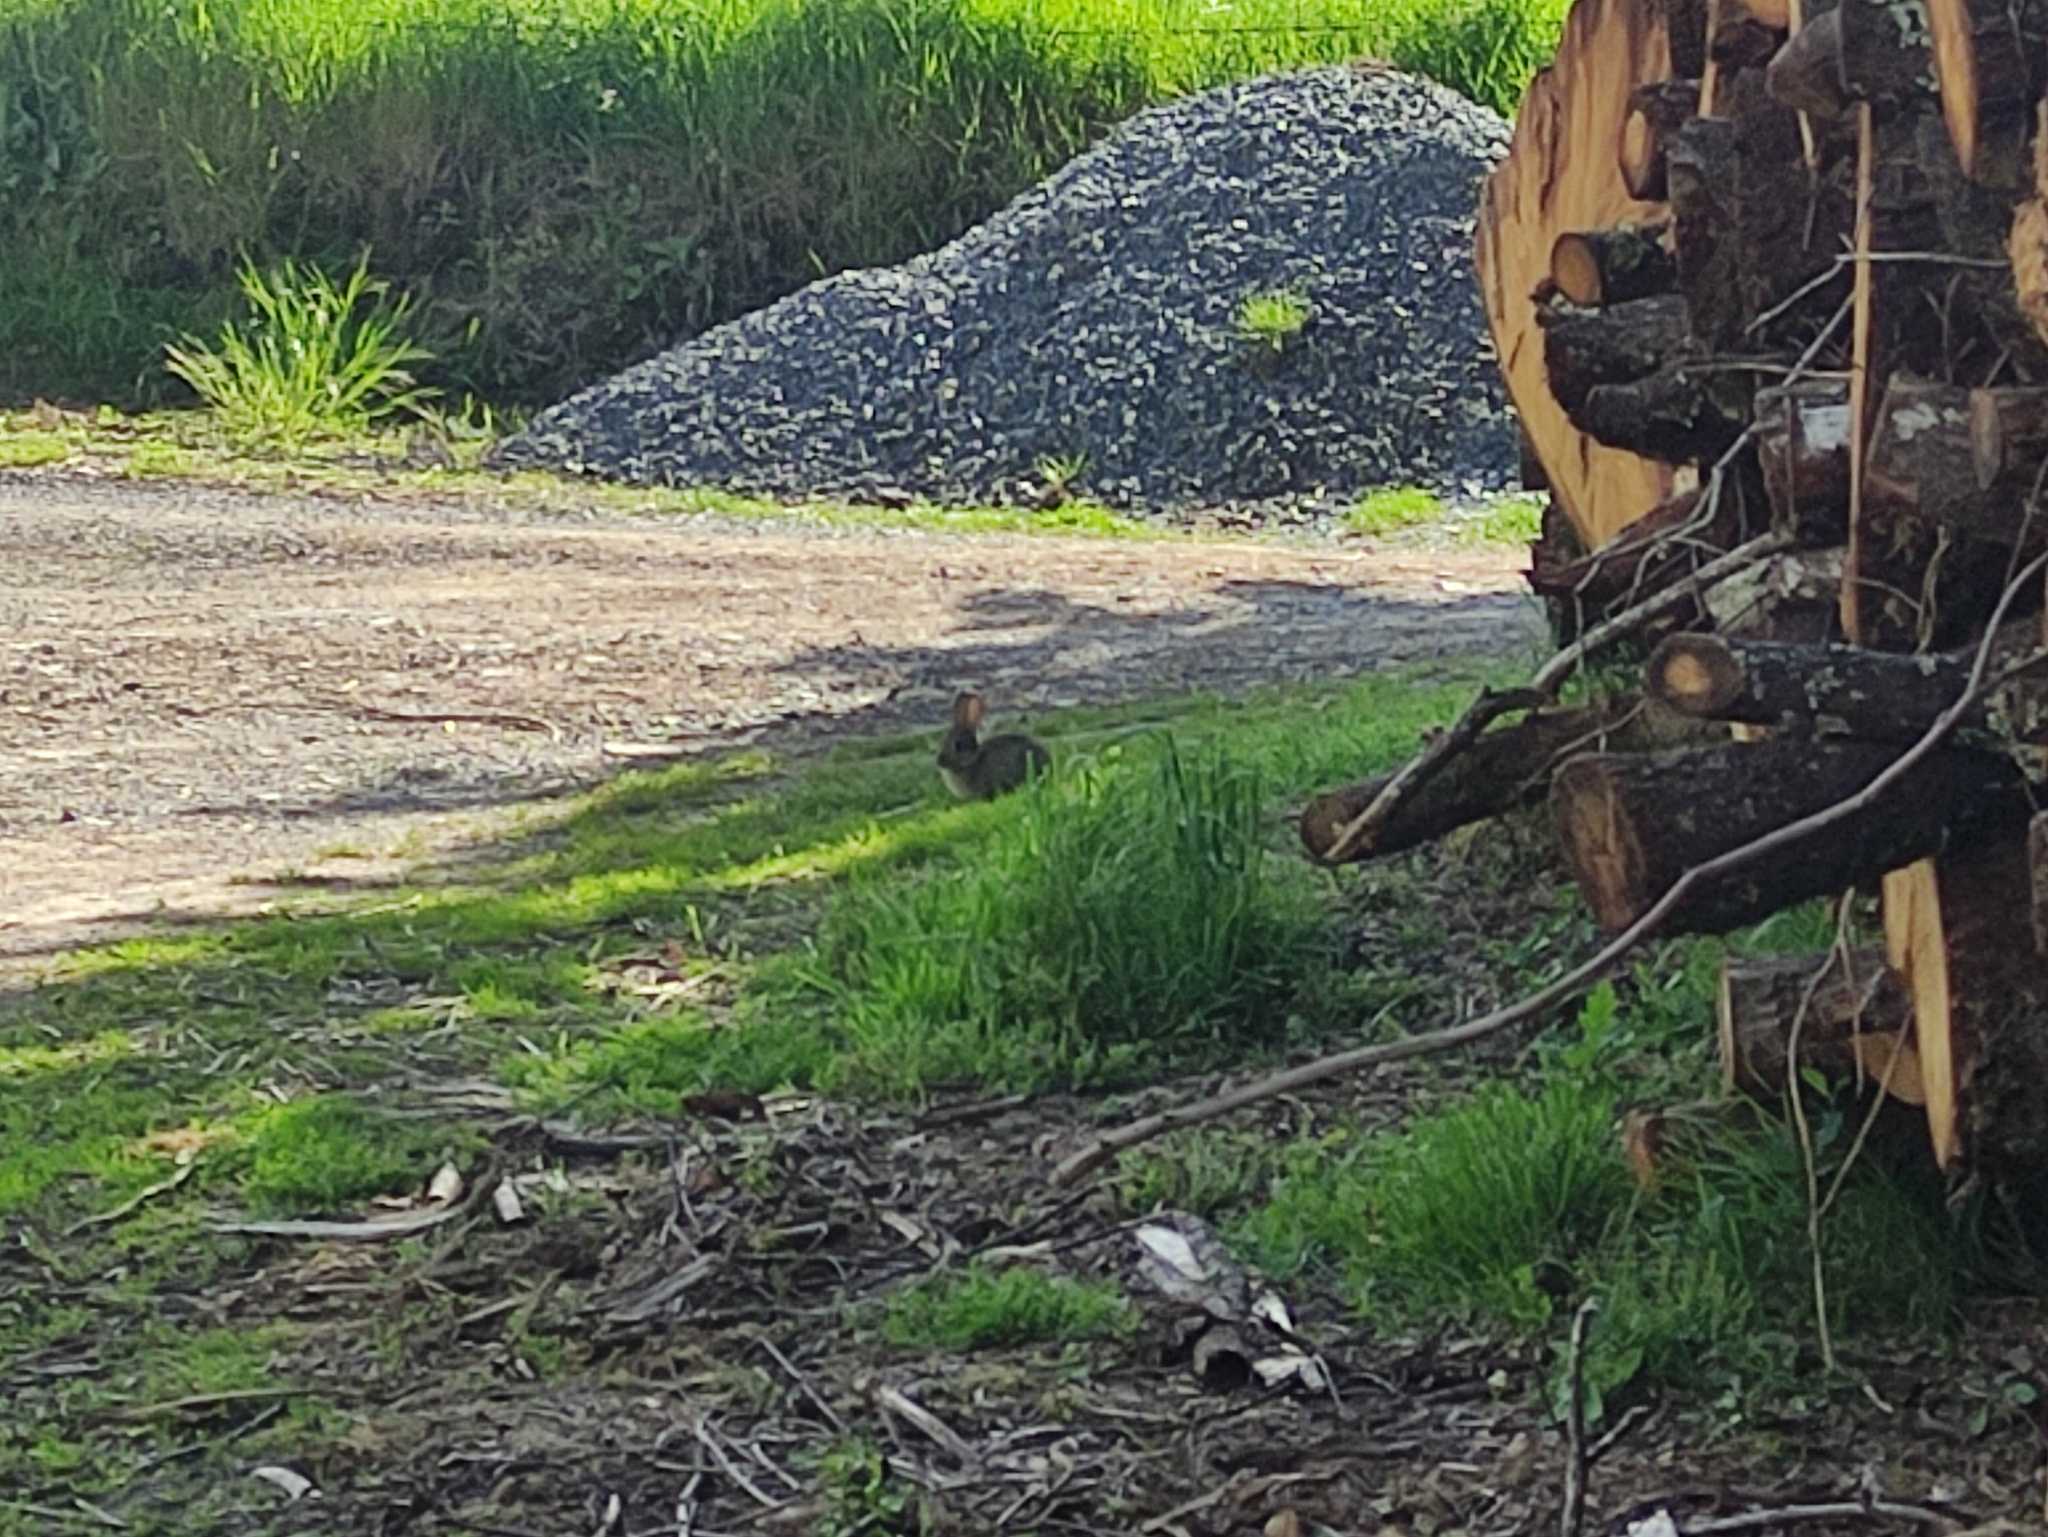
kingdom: Animalia
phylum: Chordata
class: Mammalia
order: Lagomorpha
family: Leporidae
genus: Oryctolagus
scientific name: Oryctolagus cuniculus
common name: European rabbit
